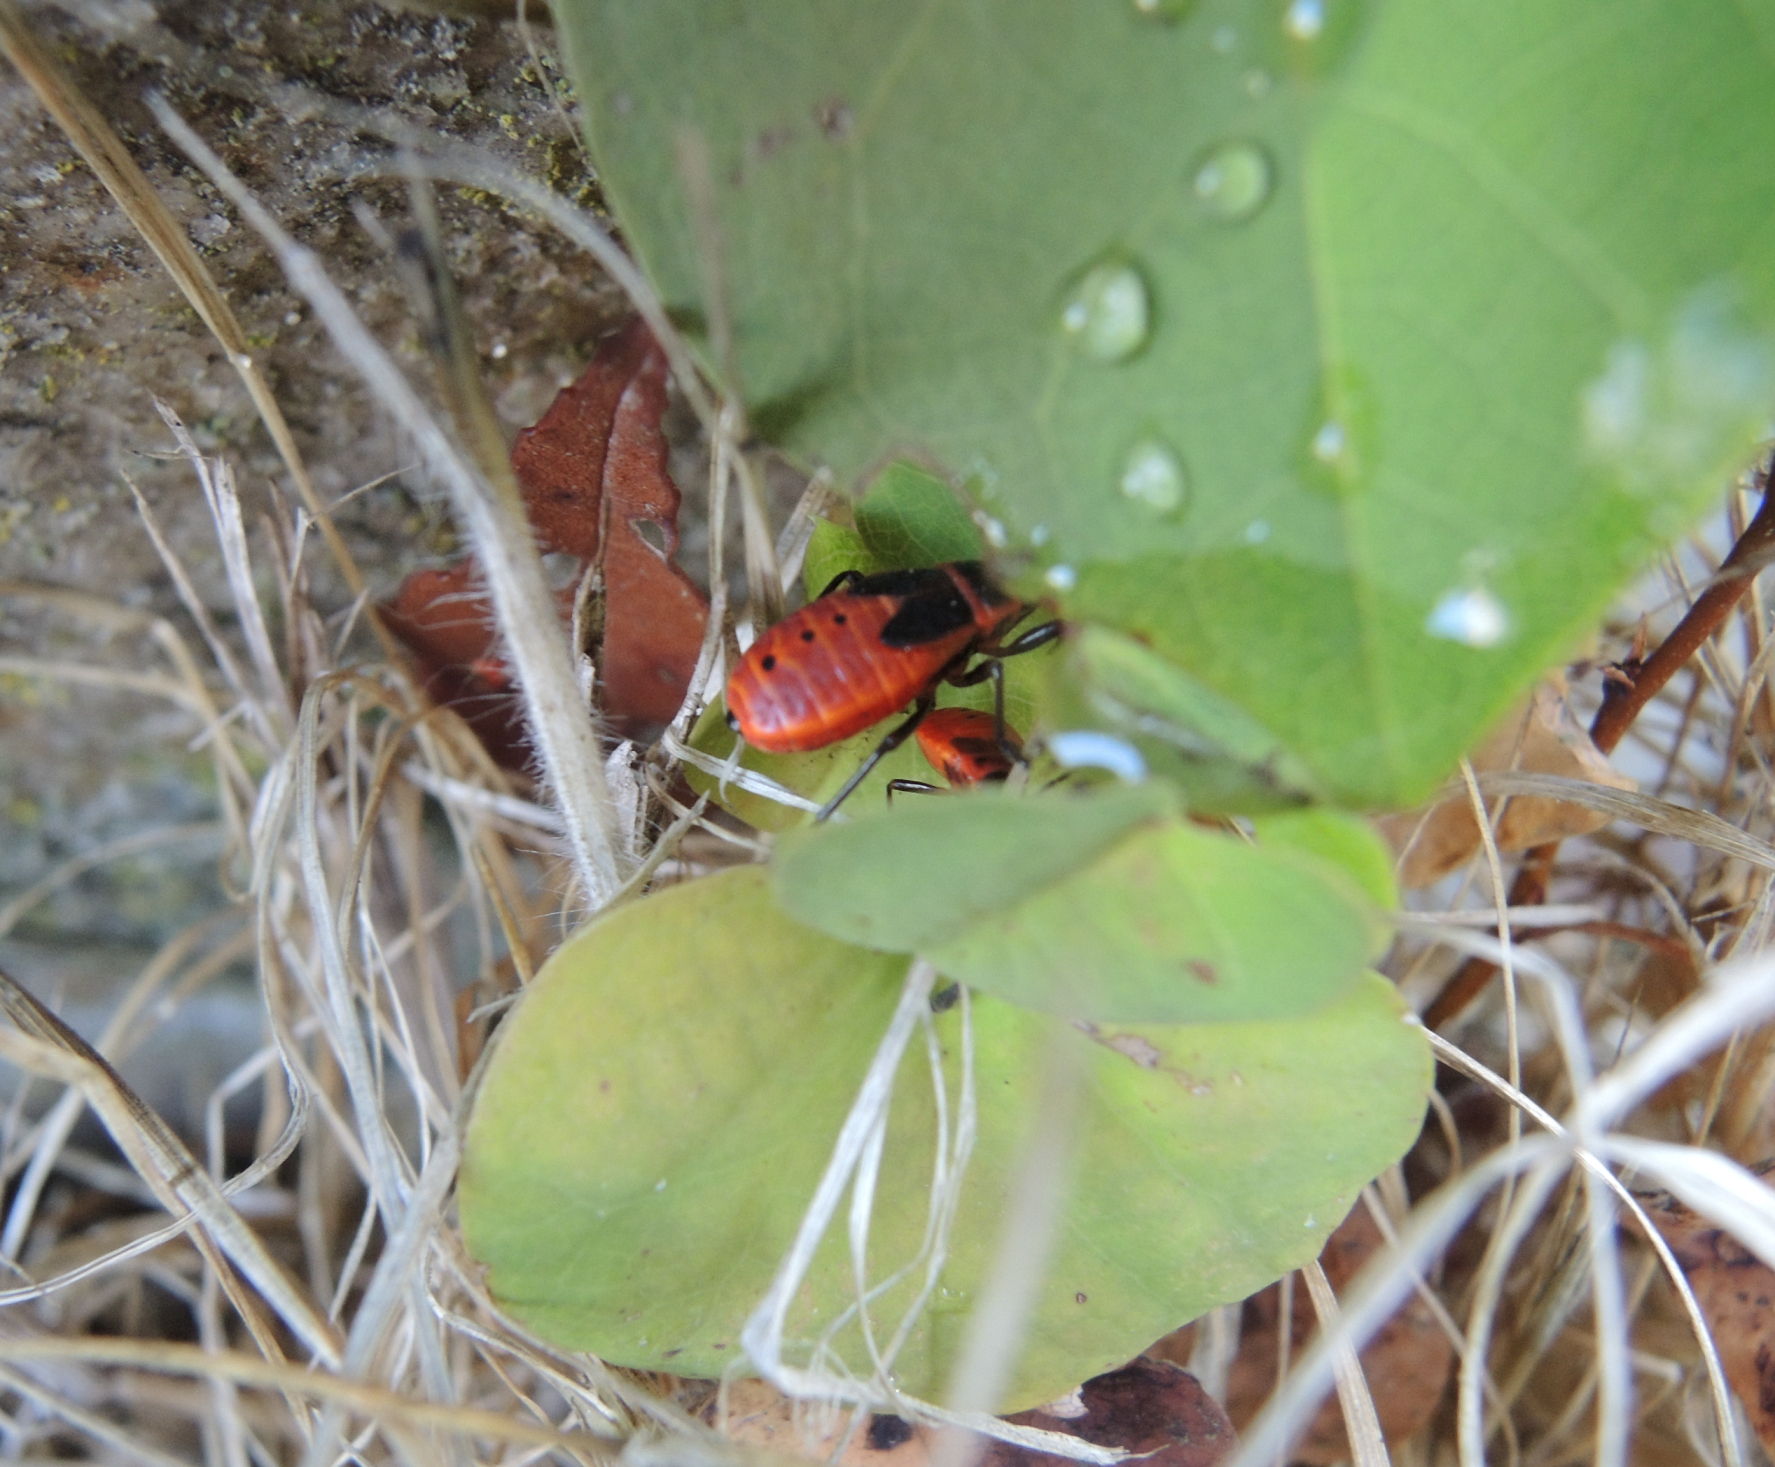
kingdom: Animalia
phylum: Arthropoda
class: Insecta
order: Hemiptera
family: Pyrrhocoridae
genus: Pyrrhocoris
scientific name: Pyrrhocoris apterus
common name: Firebug
